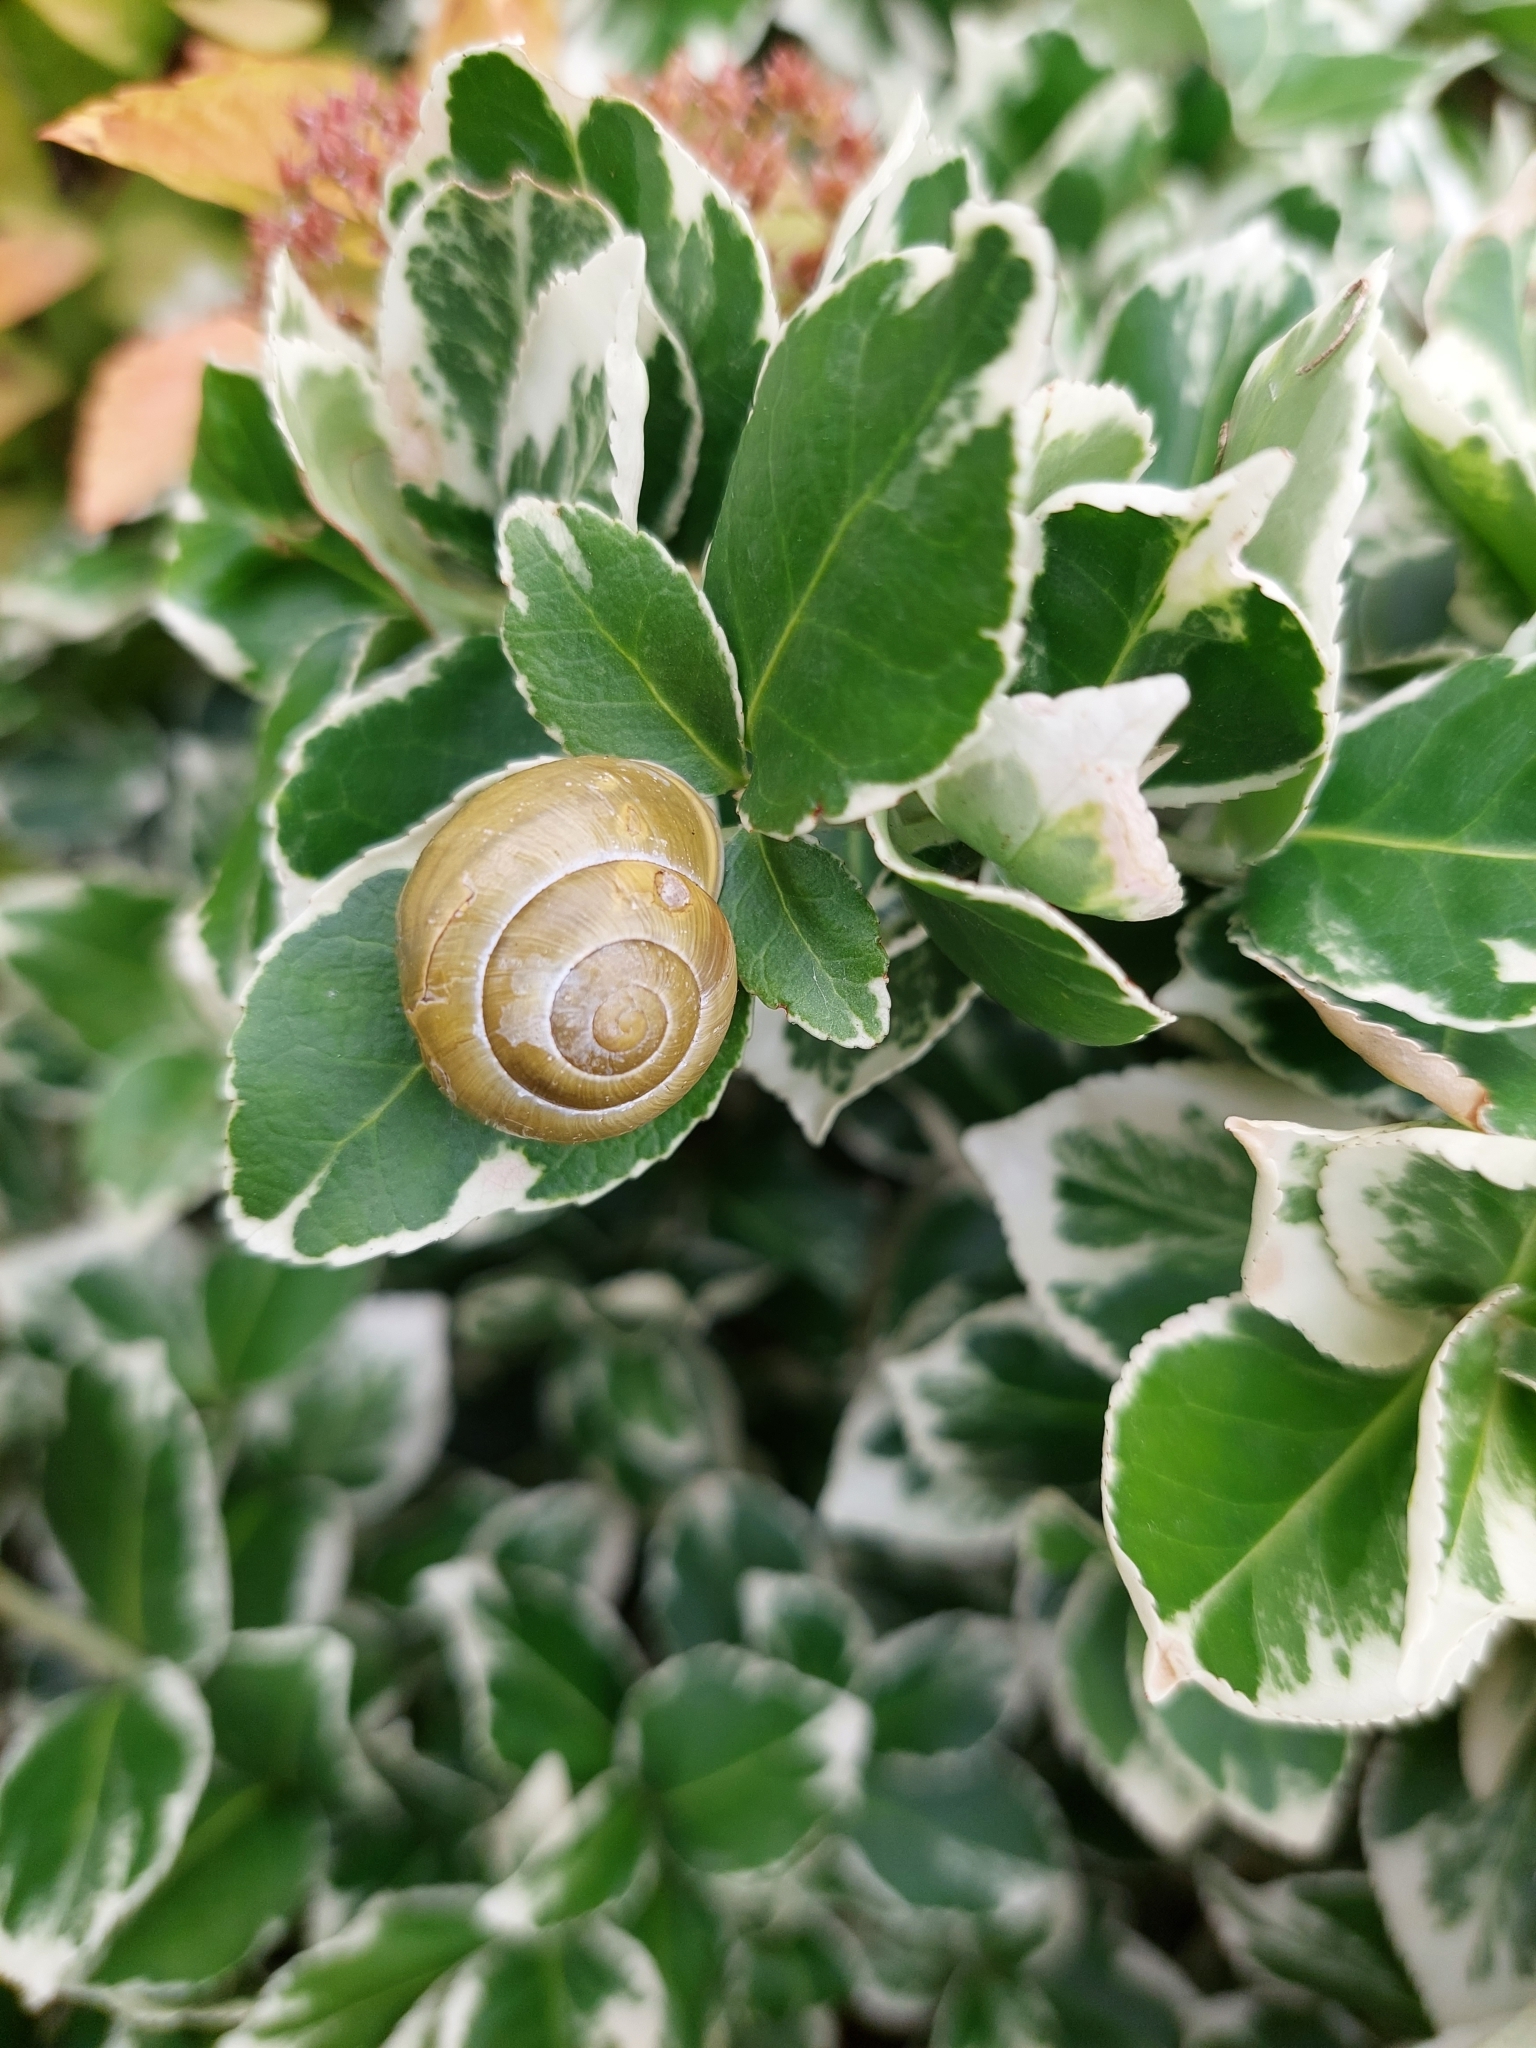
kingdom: Animalia
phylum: Mollusca
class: Gastropoda
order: Stylommatophora
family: Helicidae
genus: Cepaea
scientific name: Cepaea hortensis
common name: White-lip gardensnail
